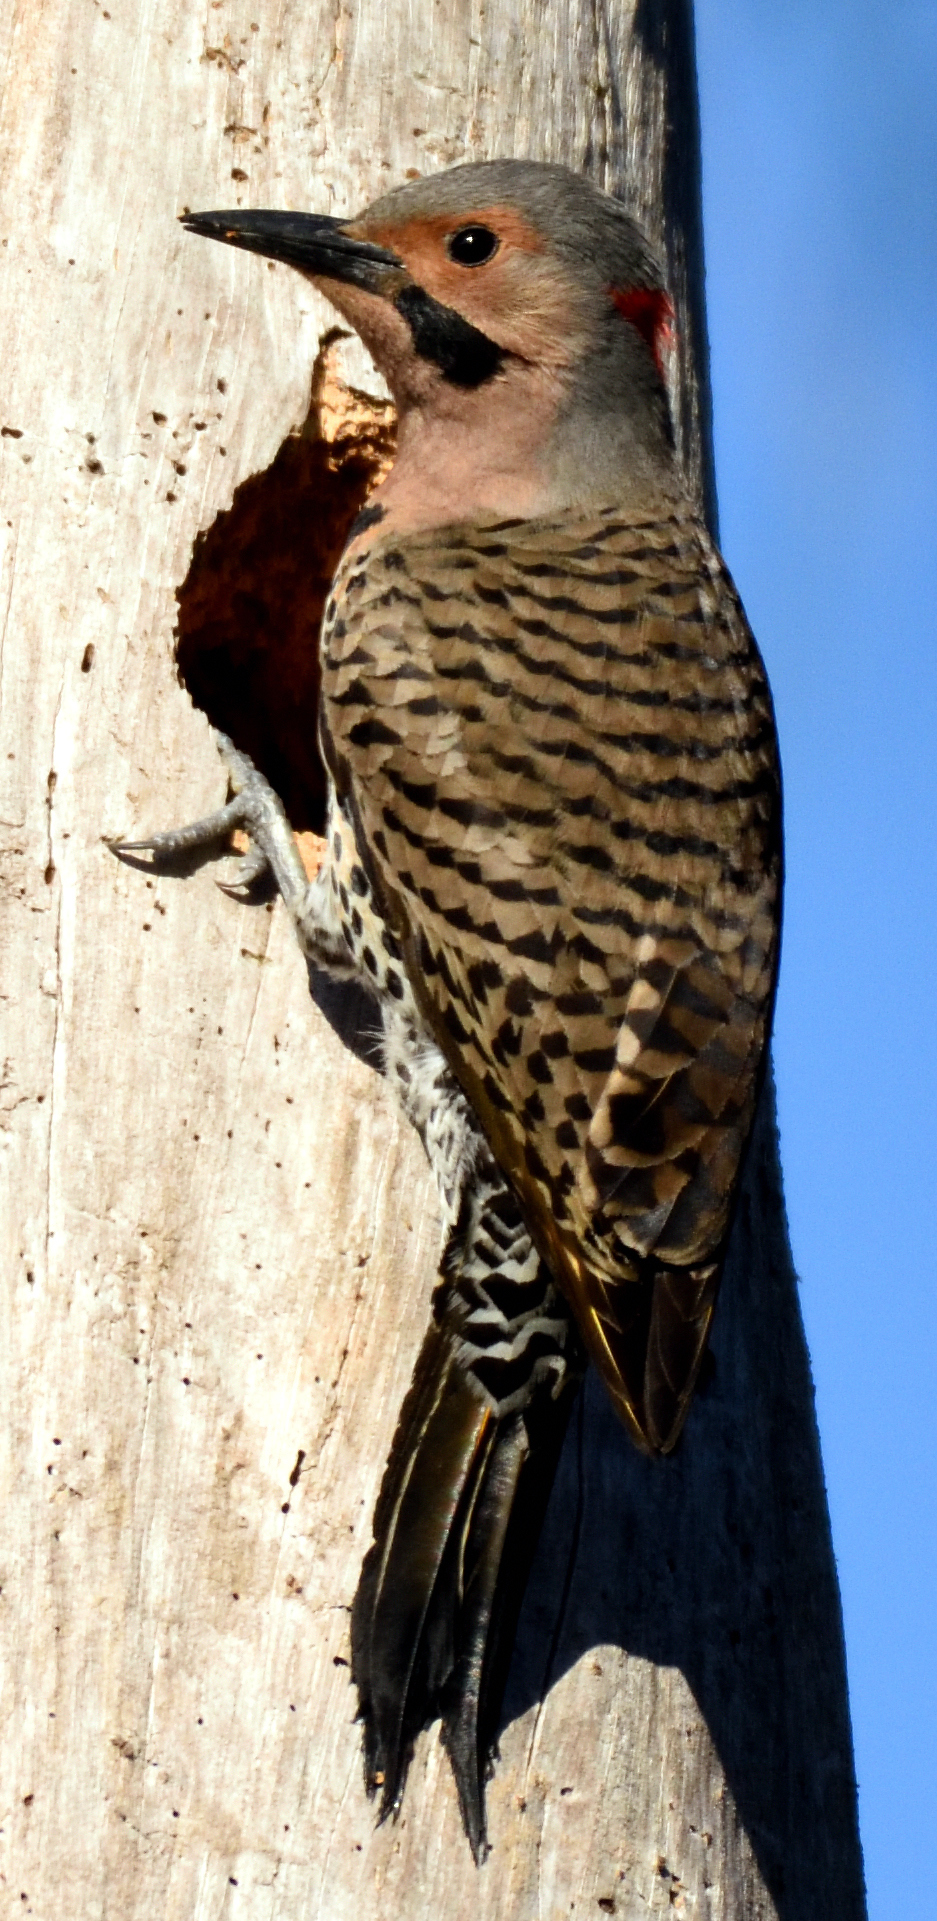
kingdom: Animalia
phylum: Chordata
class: Aves
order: Piciformes
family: Picidae
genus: Colaptes
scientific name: Colaptes auratus
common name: Northern flicker
